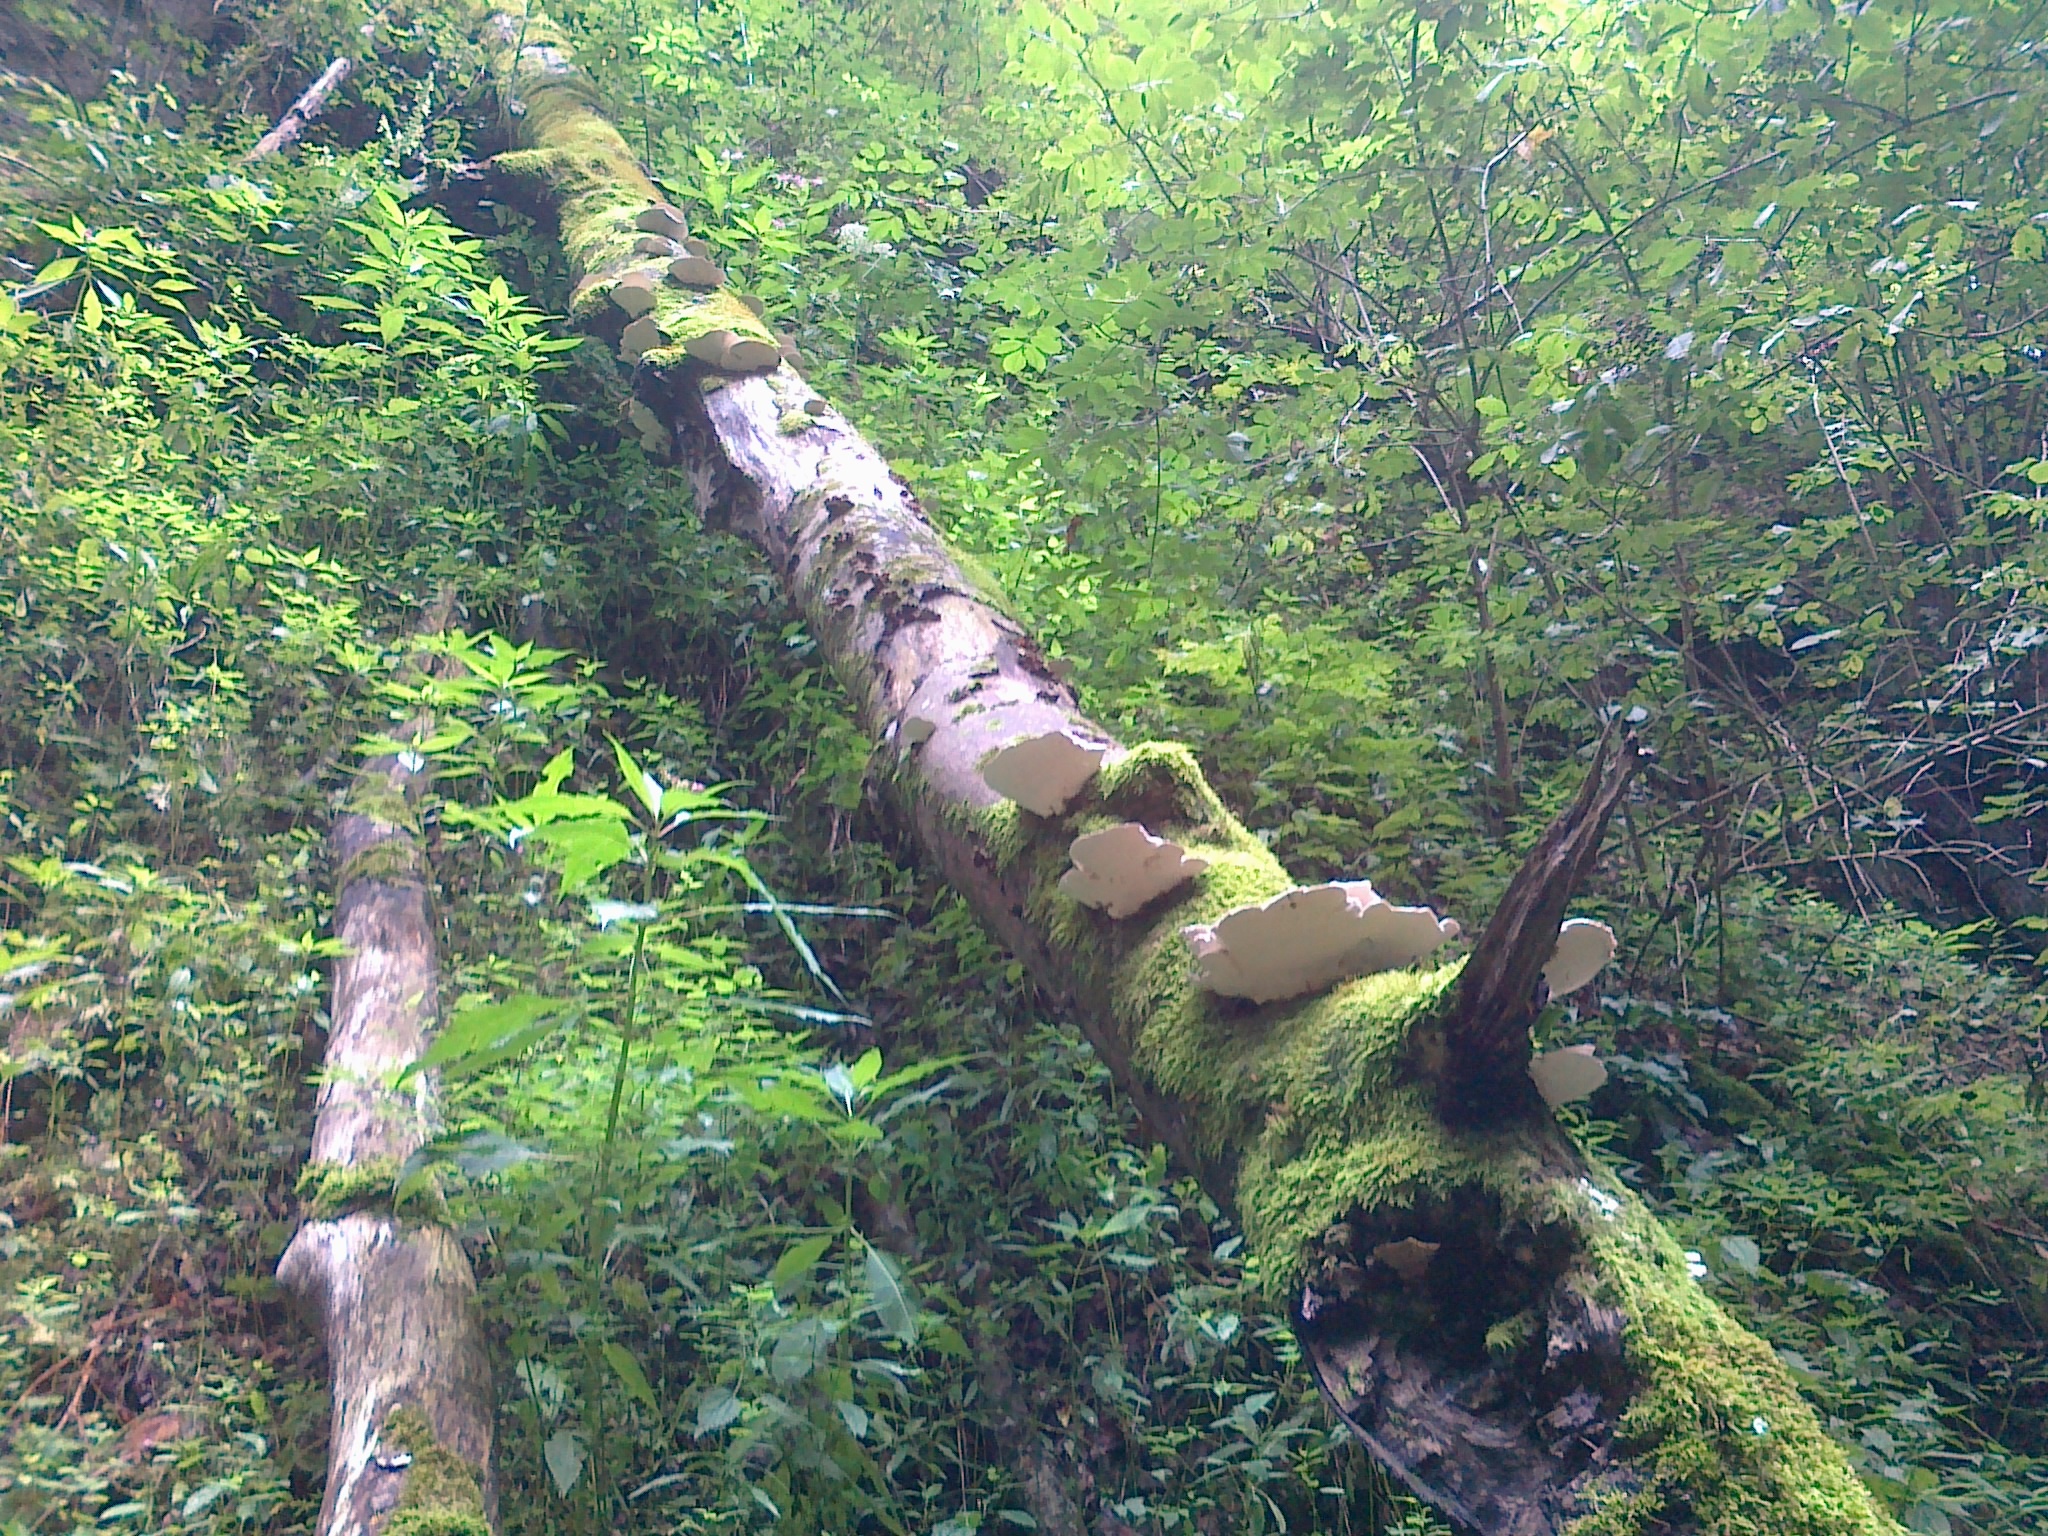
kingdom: Fungi
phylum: Basidiomycota
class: Agaricomycetes
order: Polyporales
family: Polyporaceae
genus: Trametes
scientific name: Trametes gibbosa
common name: Lumpy bracket
